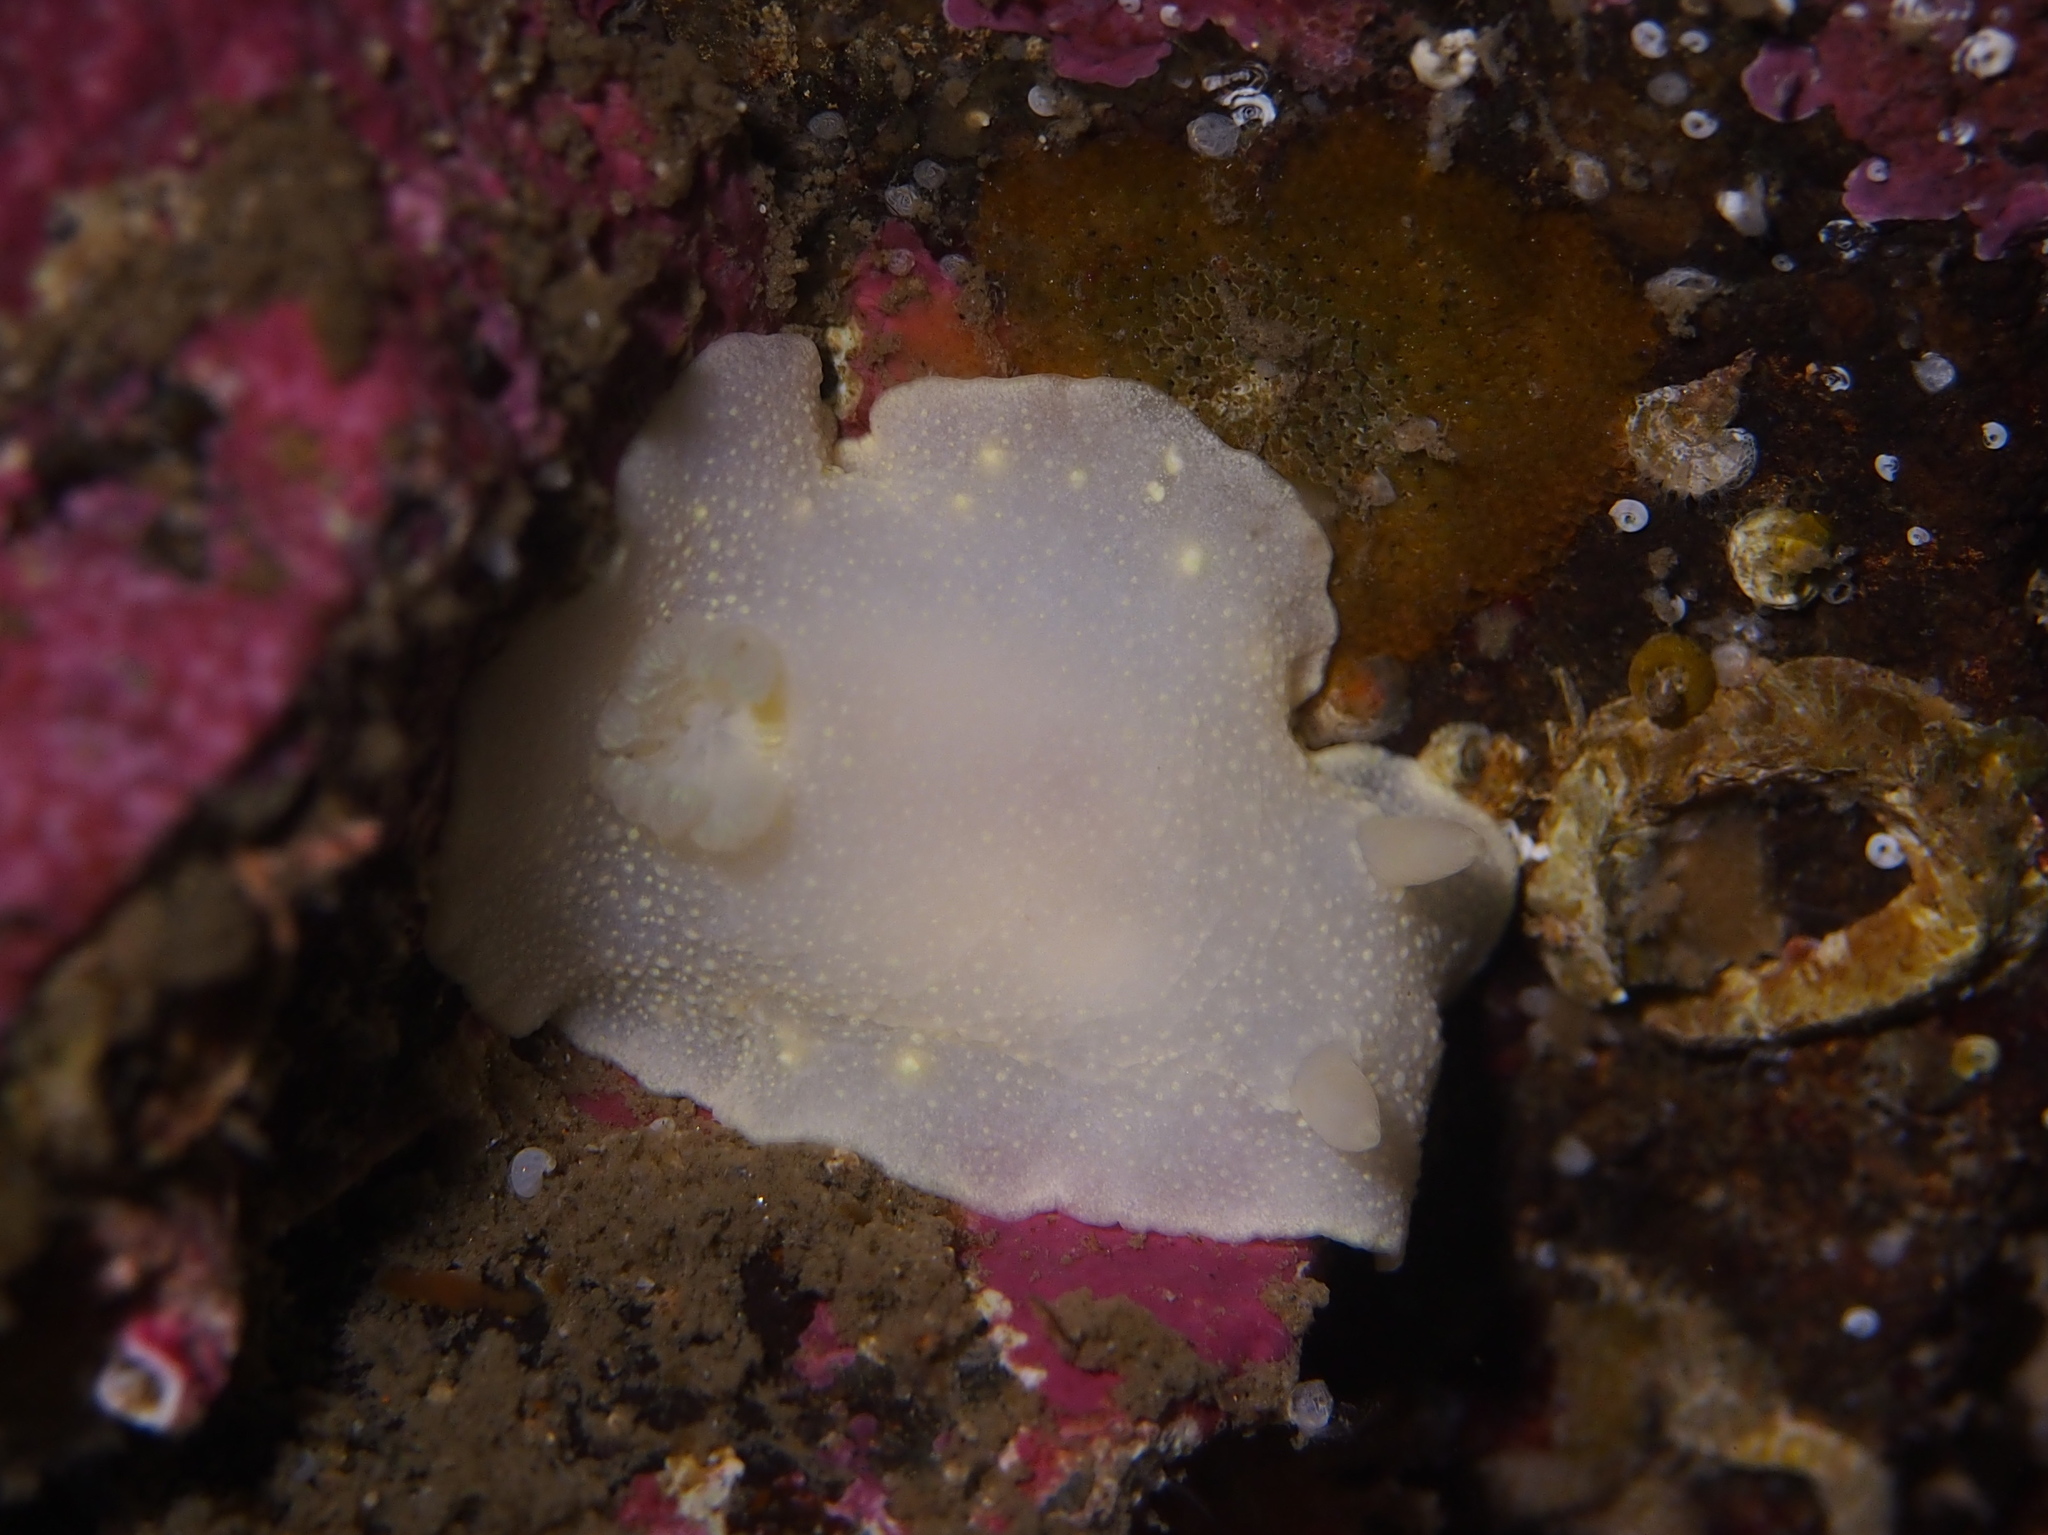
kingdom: Animalia
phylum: Mollusca
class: Gastropoda
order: Nudibranchia
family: Cadlinidae
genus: Cadlina
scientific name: Cadlina laevis
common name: White atlantic cadlina
